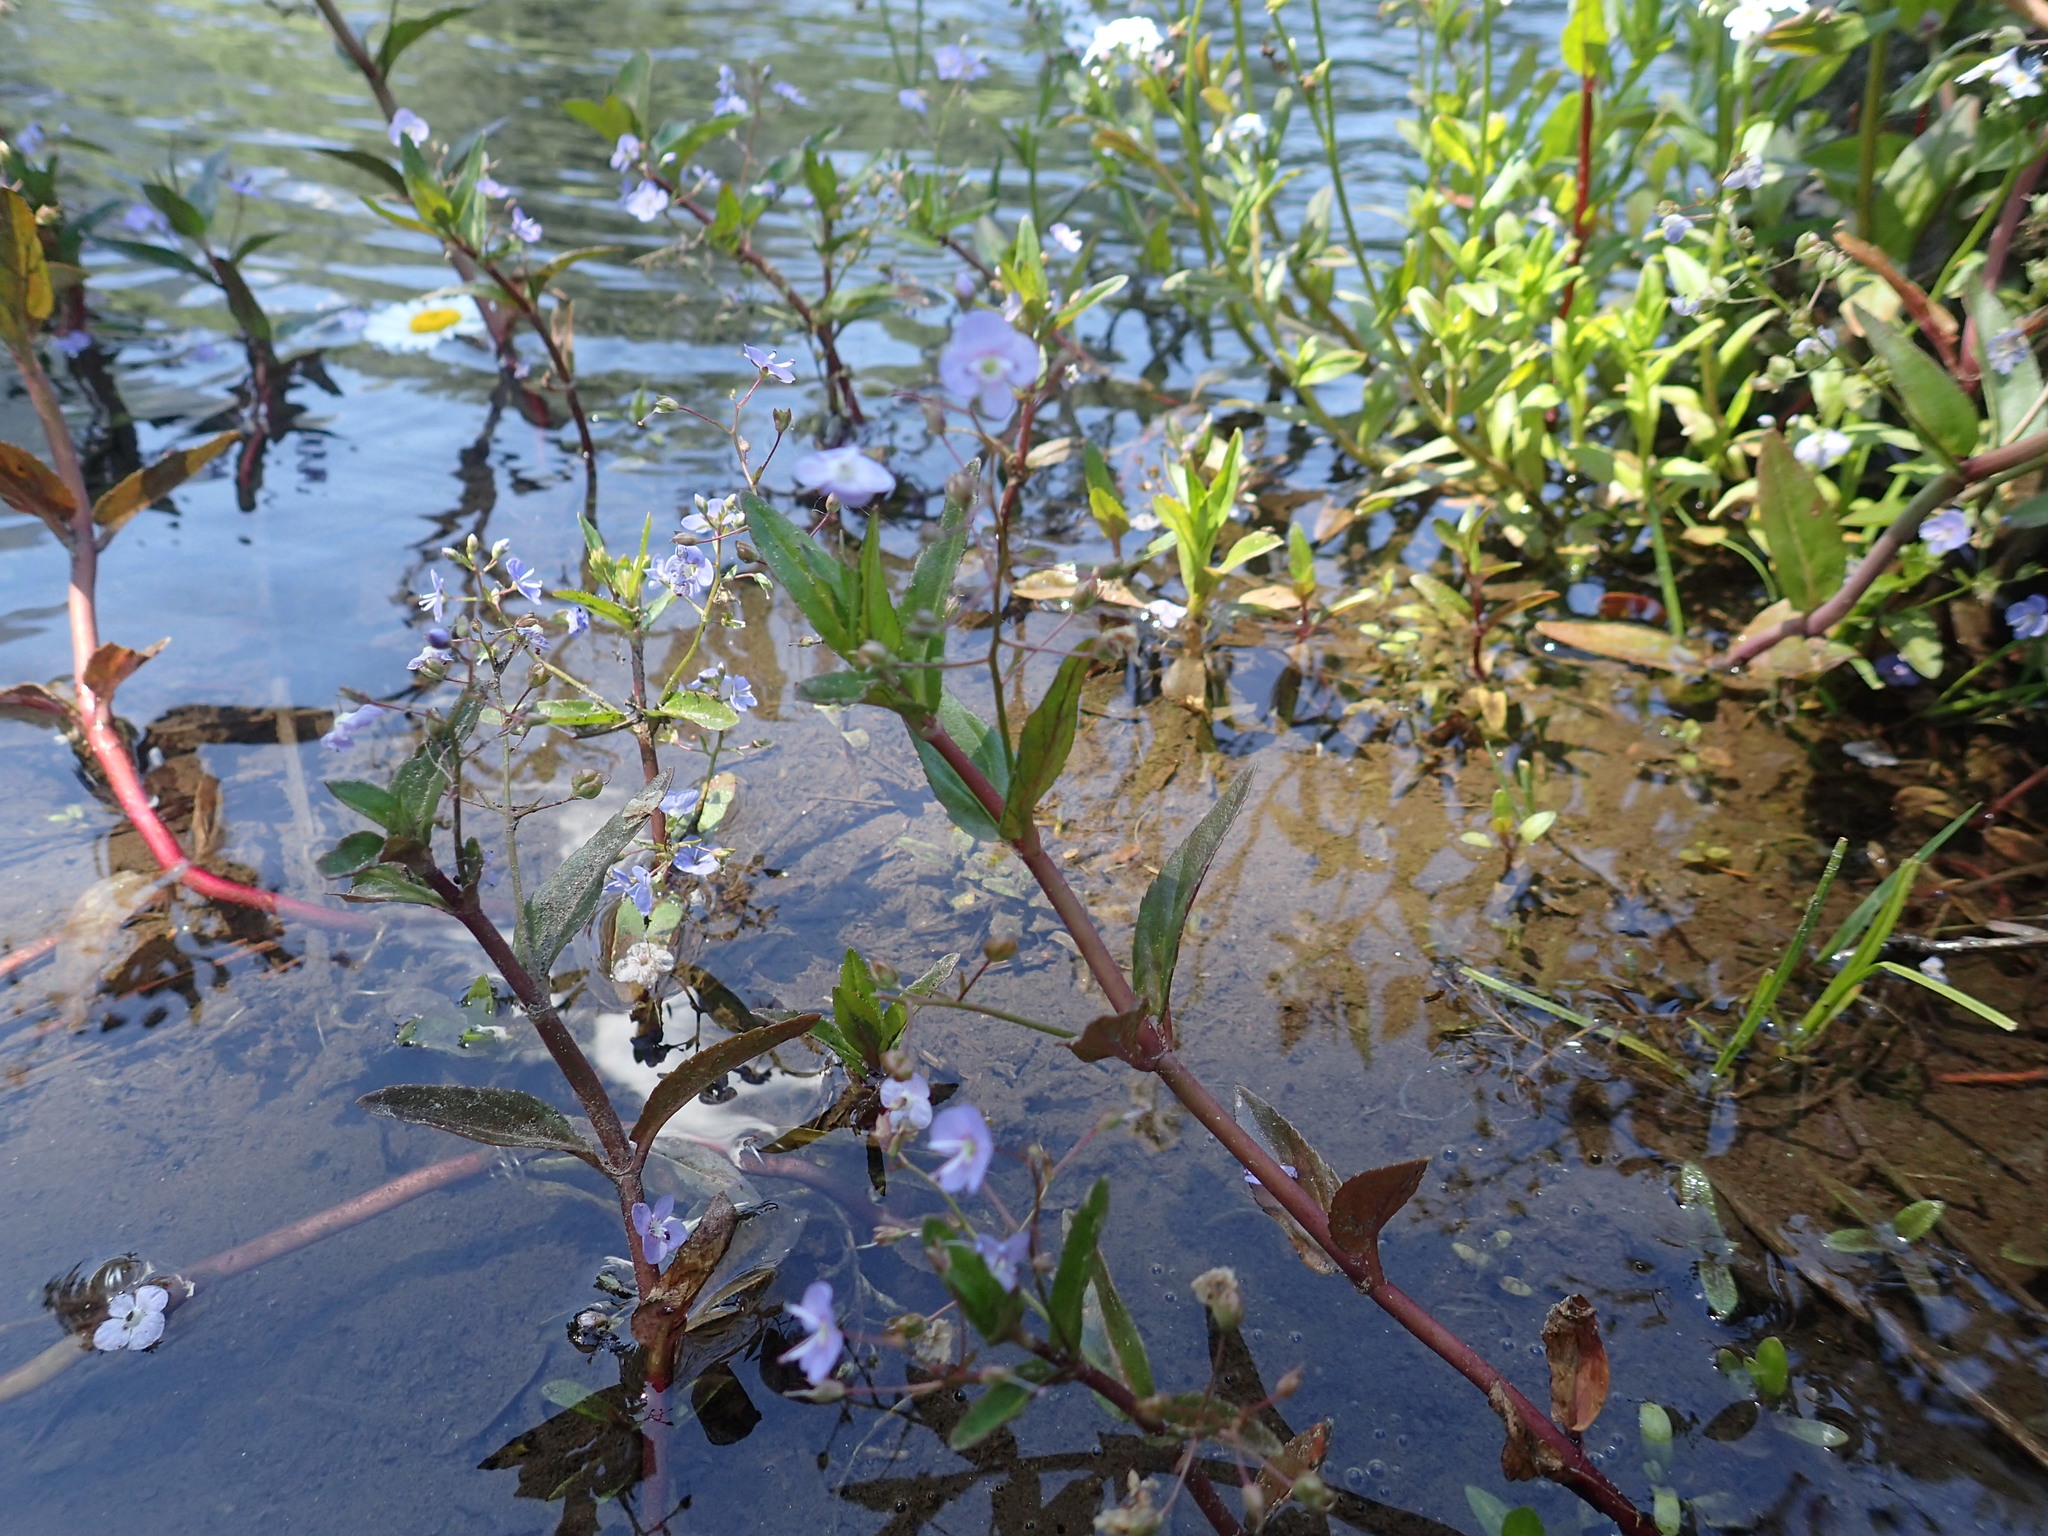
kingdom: Plantae
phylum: Tracheophyta
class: Magnoliopsida
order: Lamiales
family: Plantaginaceae
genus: Veronica
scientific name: Veronica americana
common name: American brooklime
